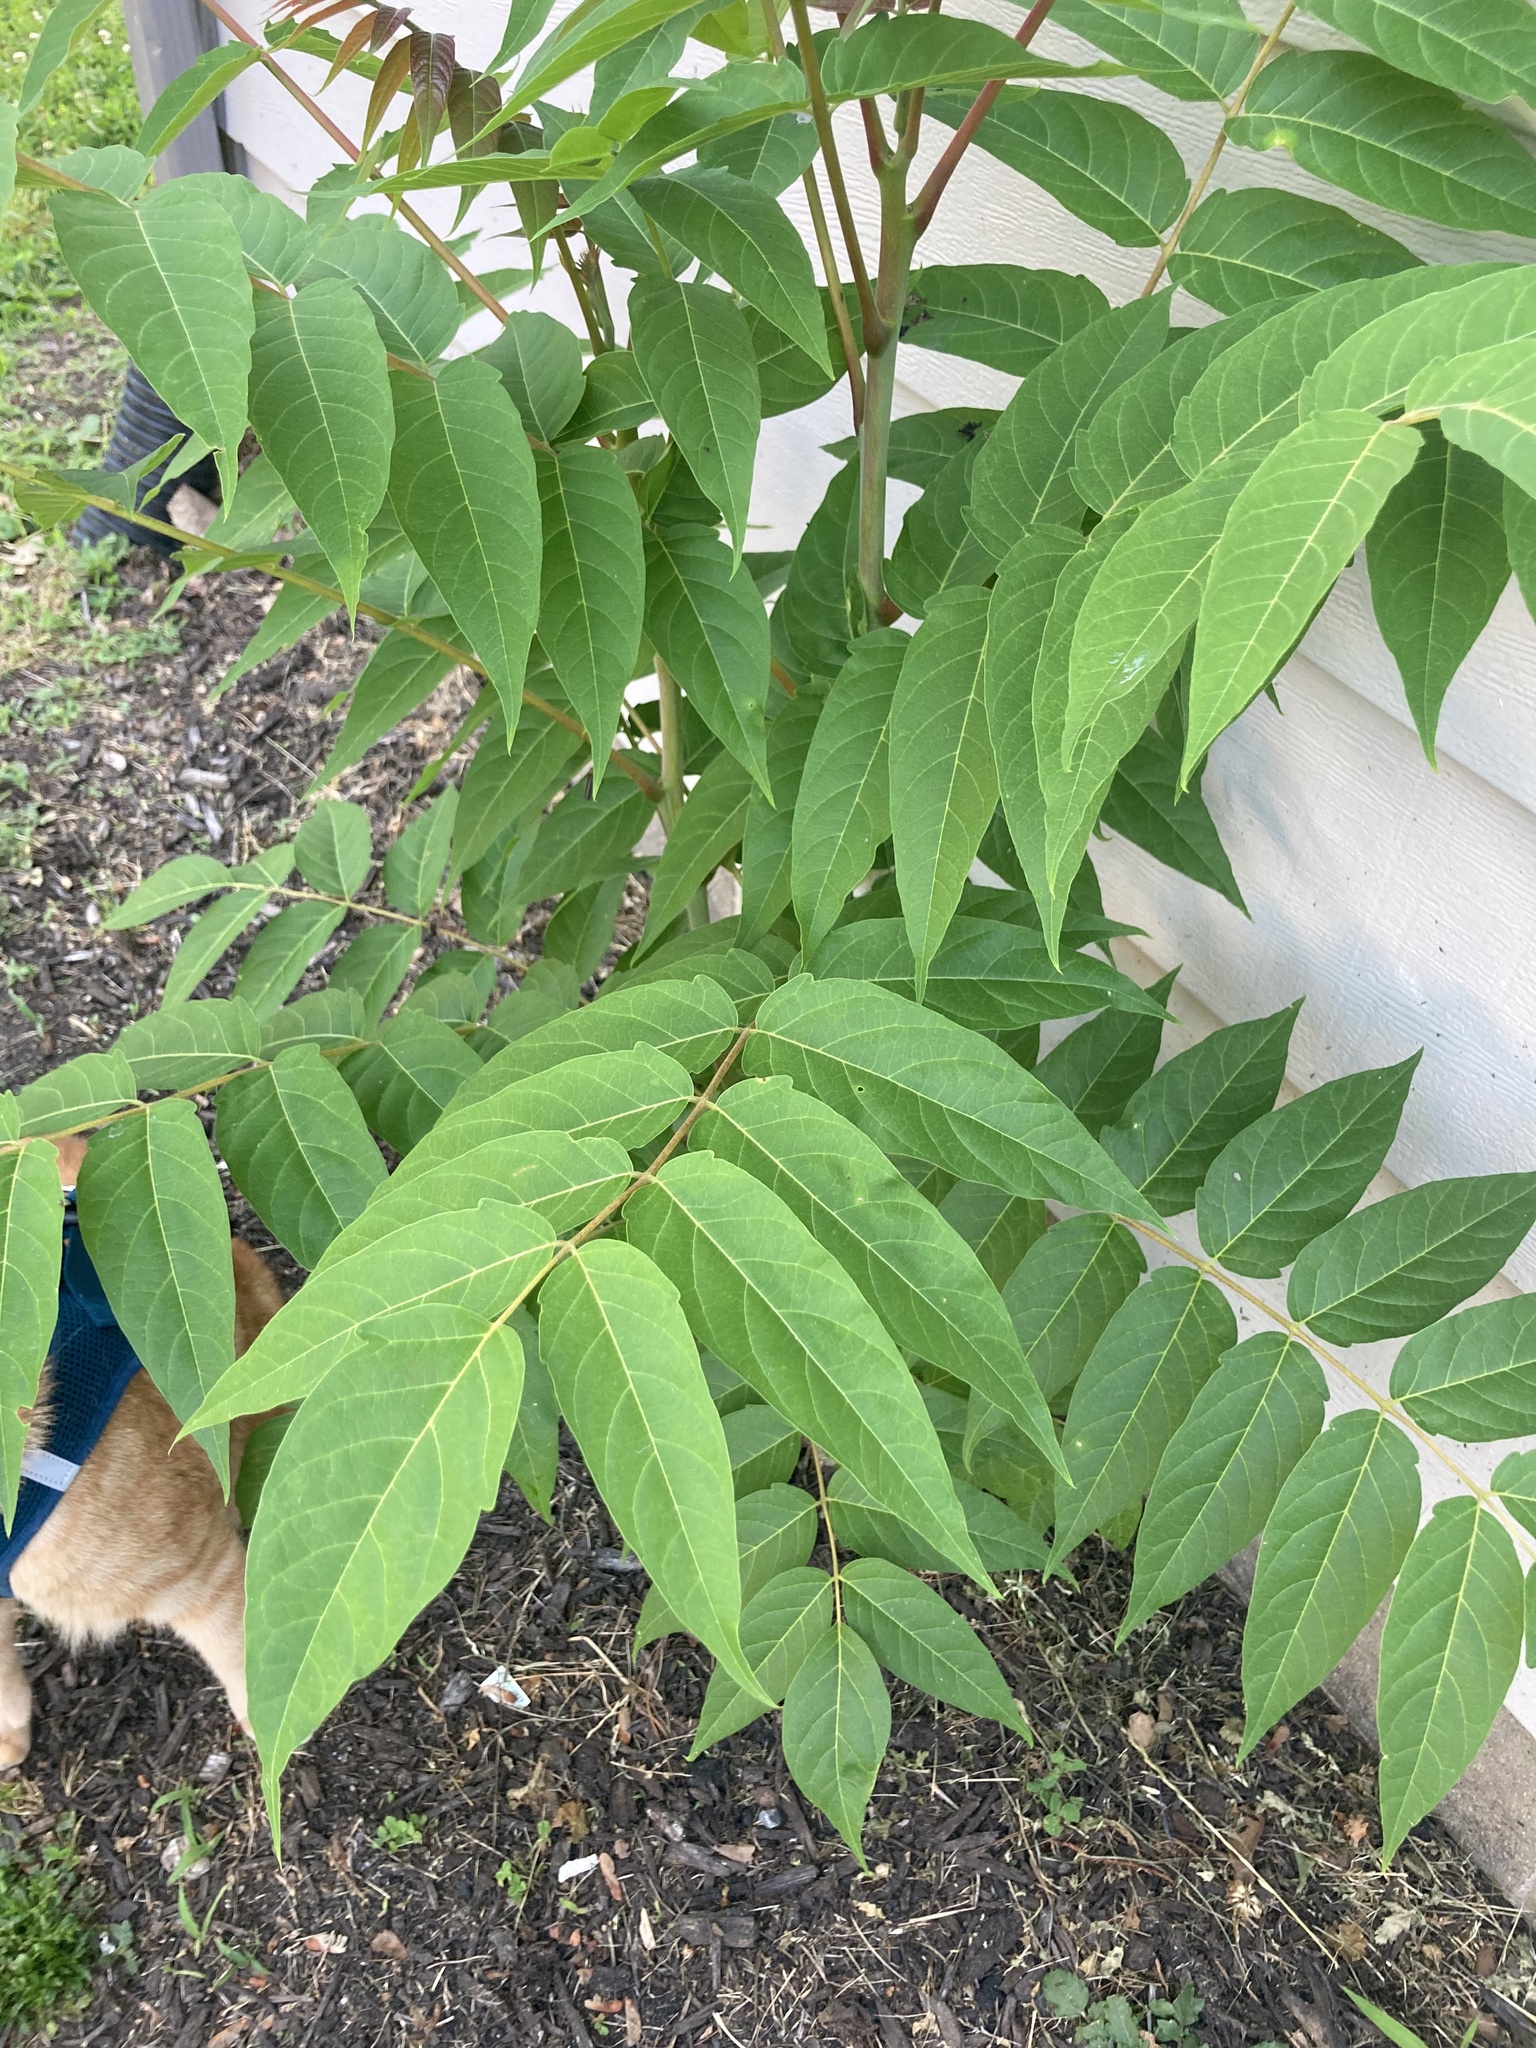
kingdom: Plantae
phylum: Tracheophyta
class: Magnoliopsida
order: Sapindales
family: Simaroubaceae
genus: Ailanthus
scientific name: Ailanthus altissima
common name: Tree-of-heaven
